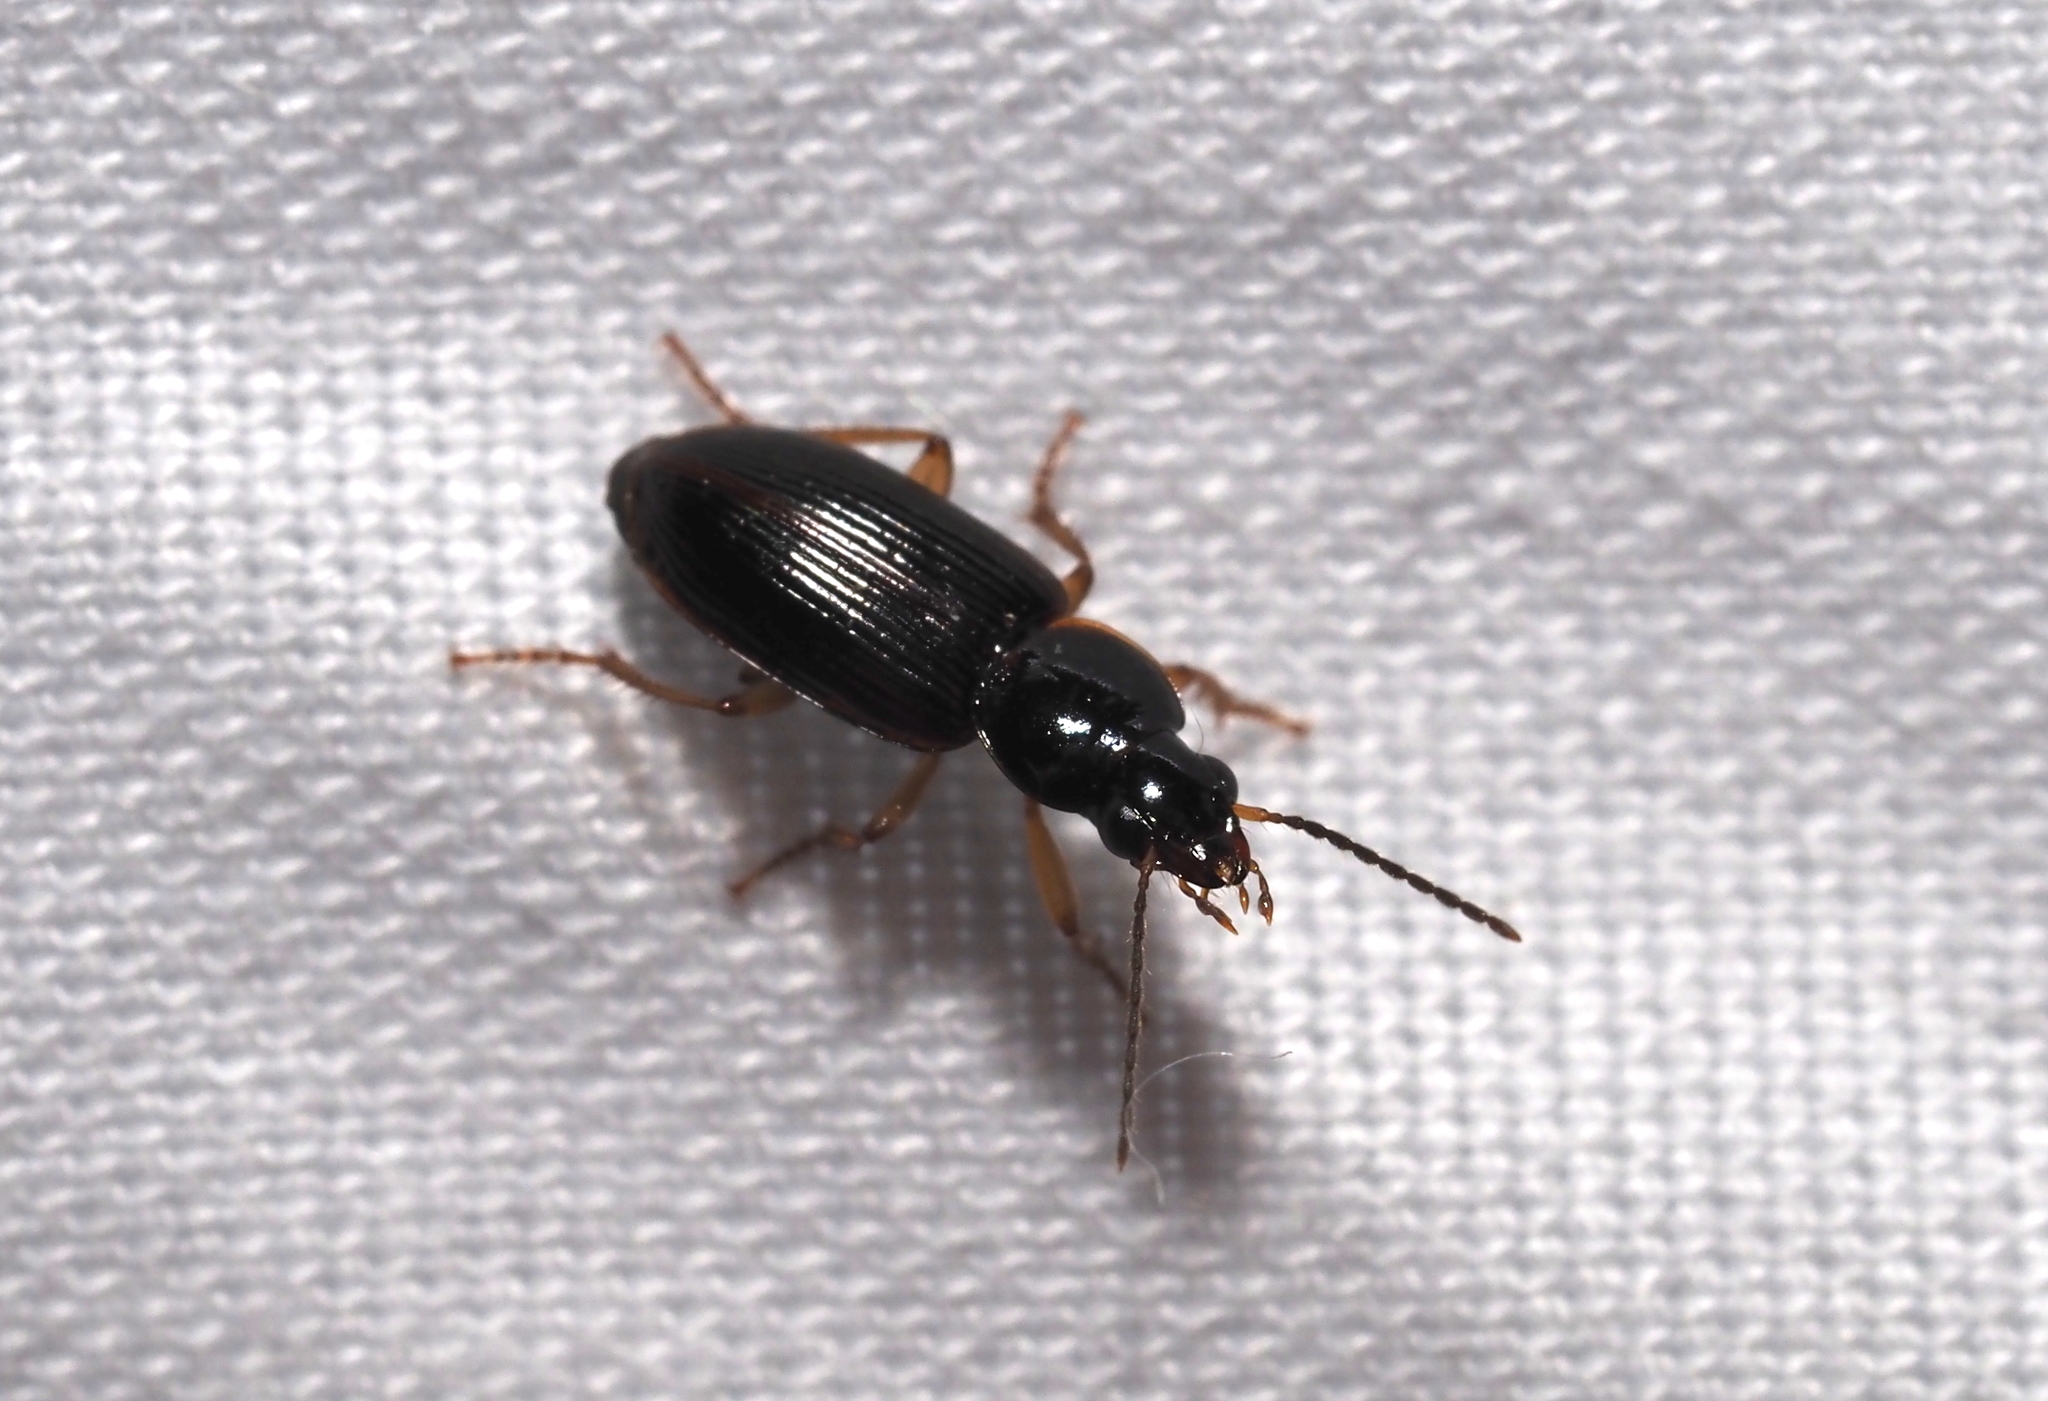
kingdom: Animalia
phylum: Arthropoda
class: Insecta
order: Coleoptera
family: Carabidae
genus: Stenolophus
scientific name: Stenolophus ochropezus
